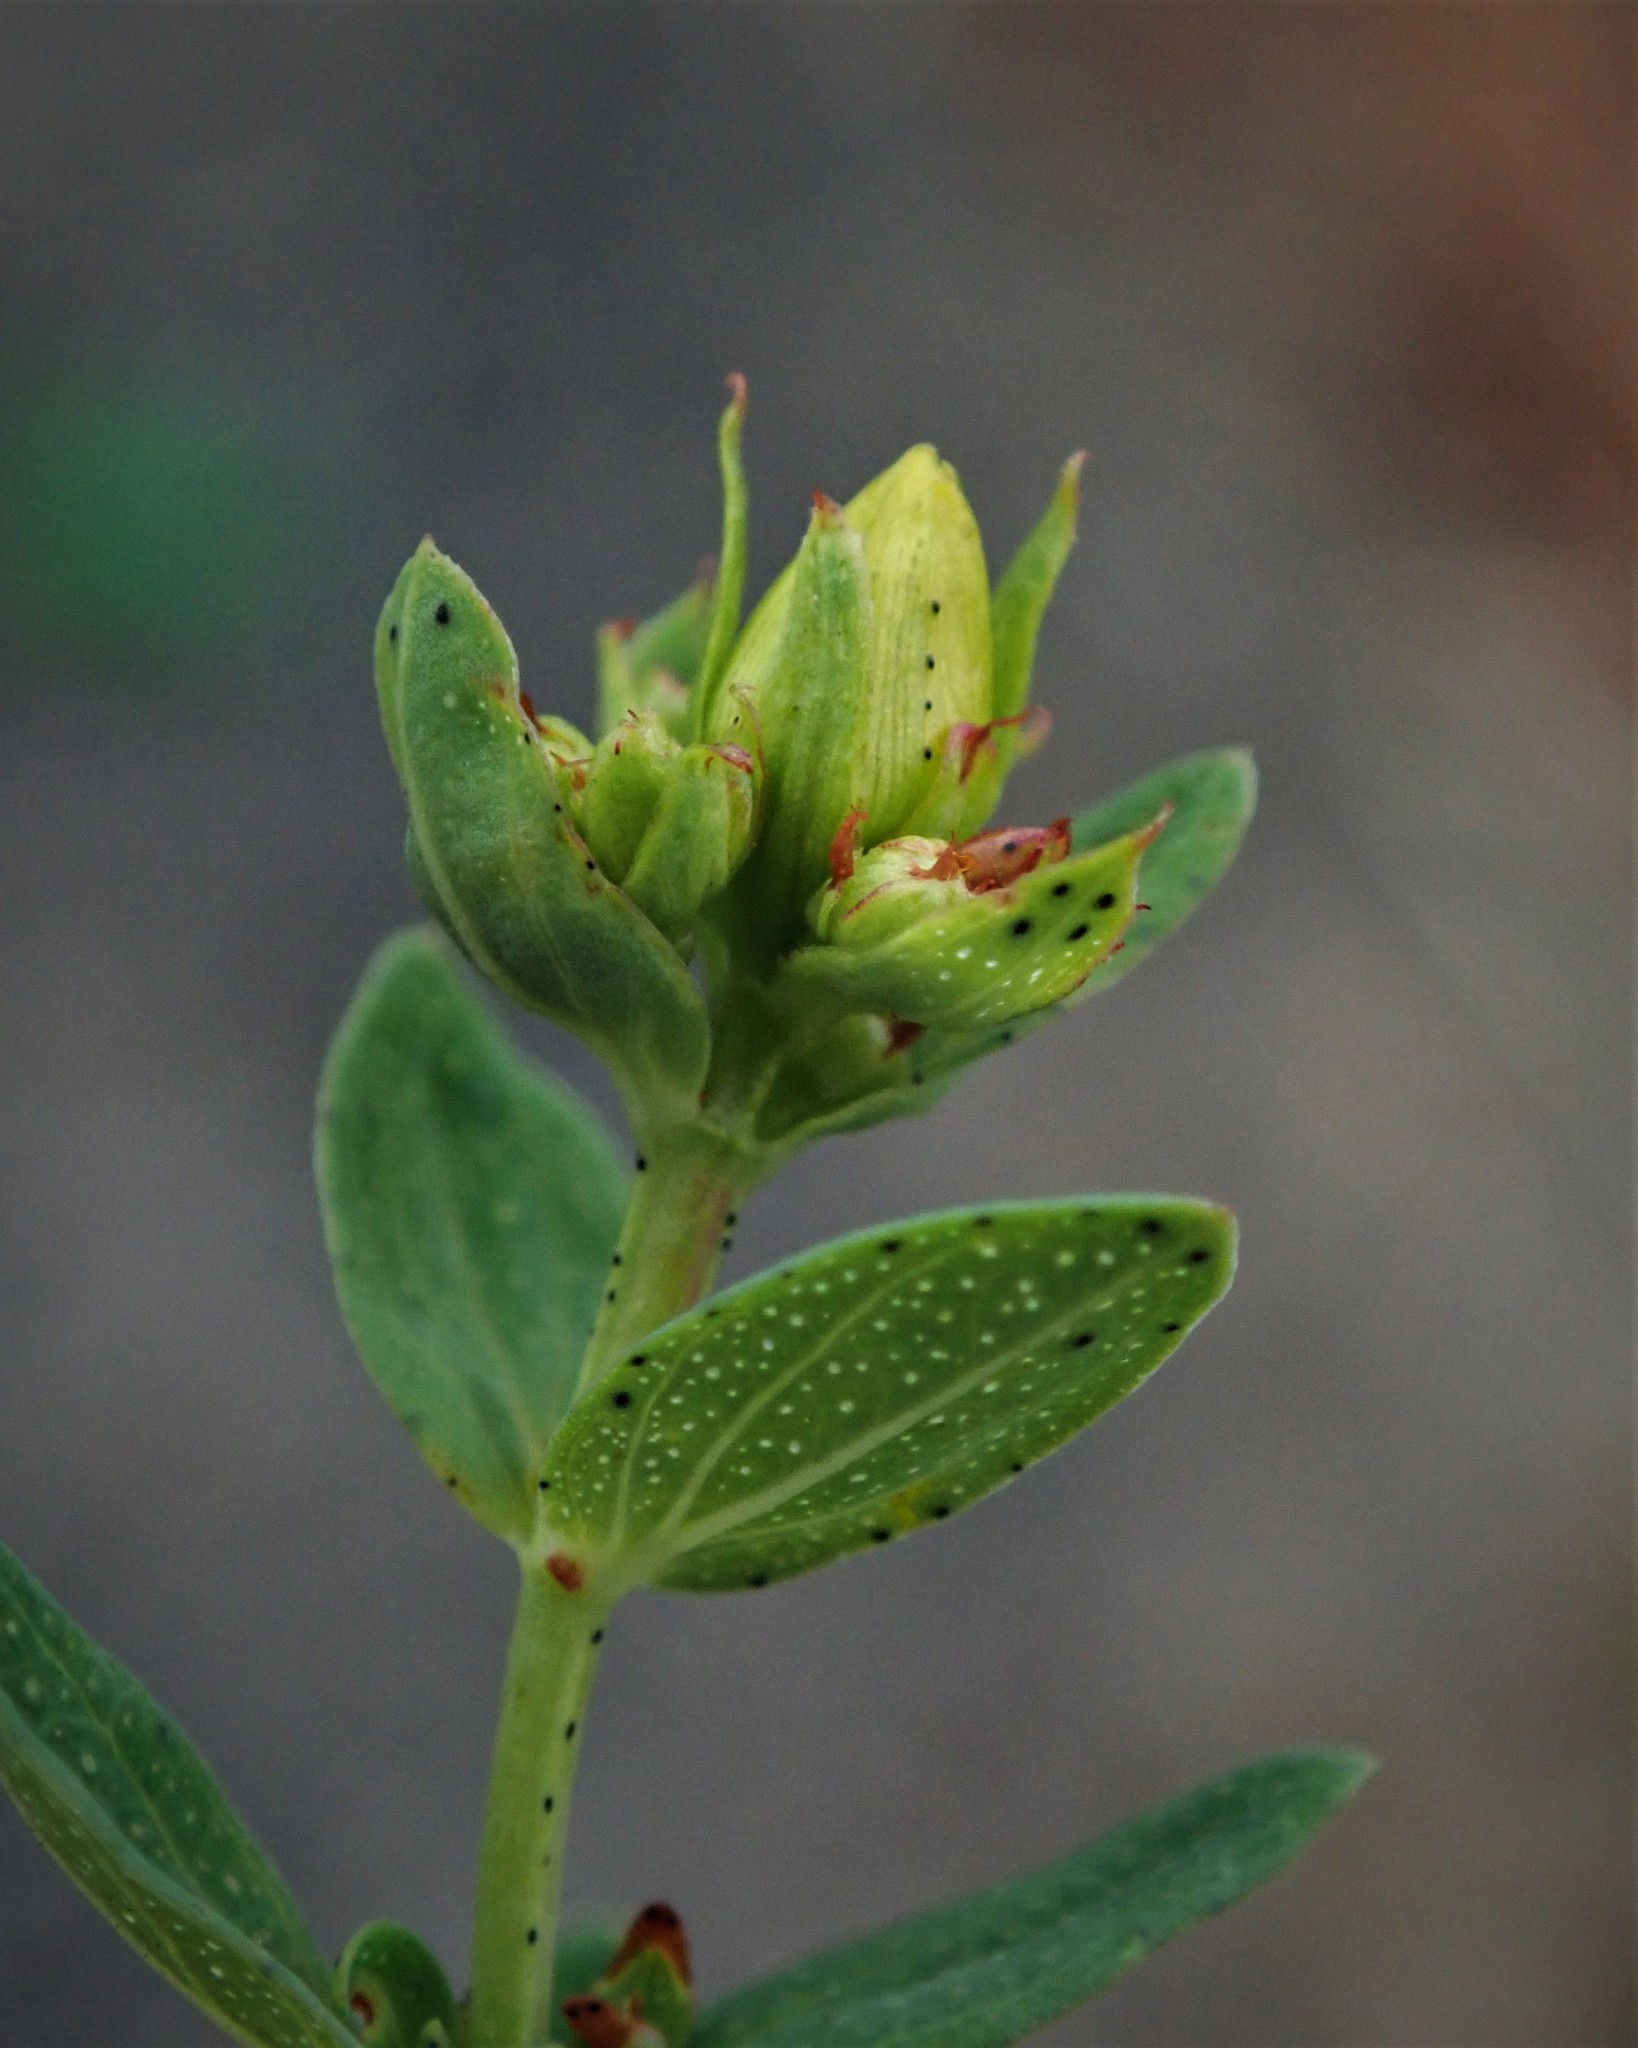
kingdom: Plantae
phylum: Tracheophyta
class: Magnoliopsida
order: Malpighiales
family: Hypericaceae
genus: Hypericum
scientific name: Hypericum perforatum
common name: Common st. johnswort
